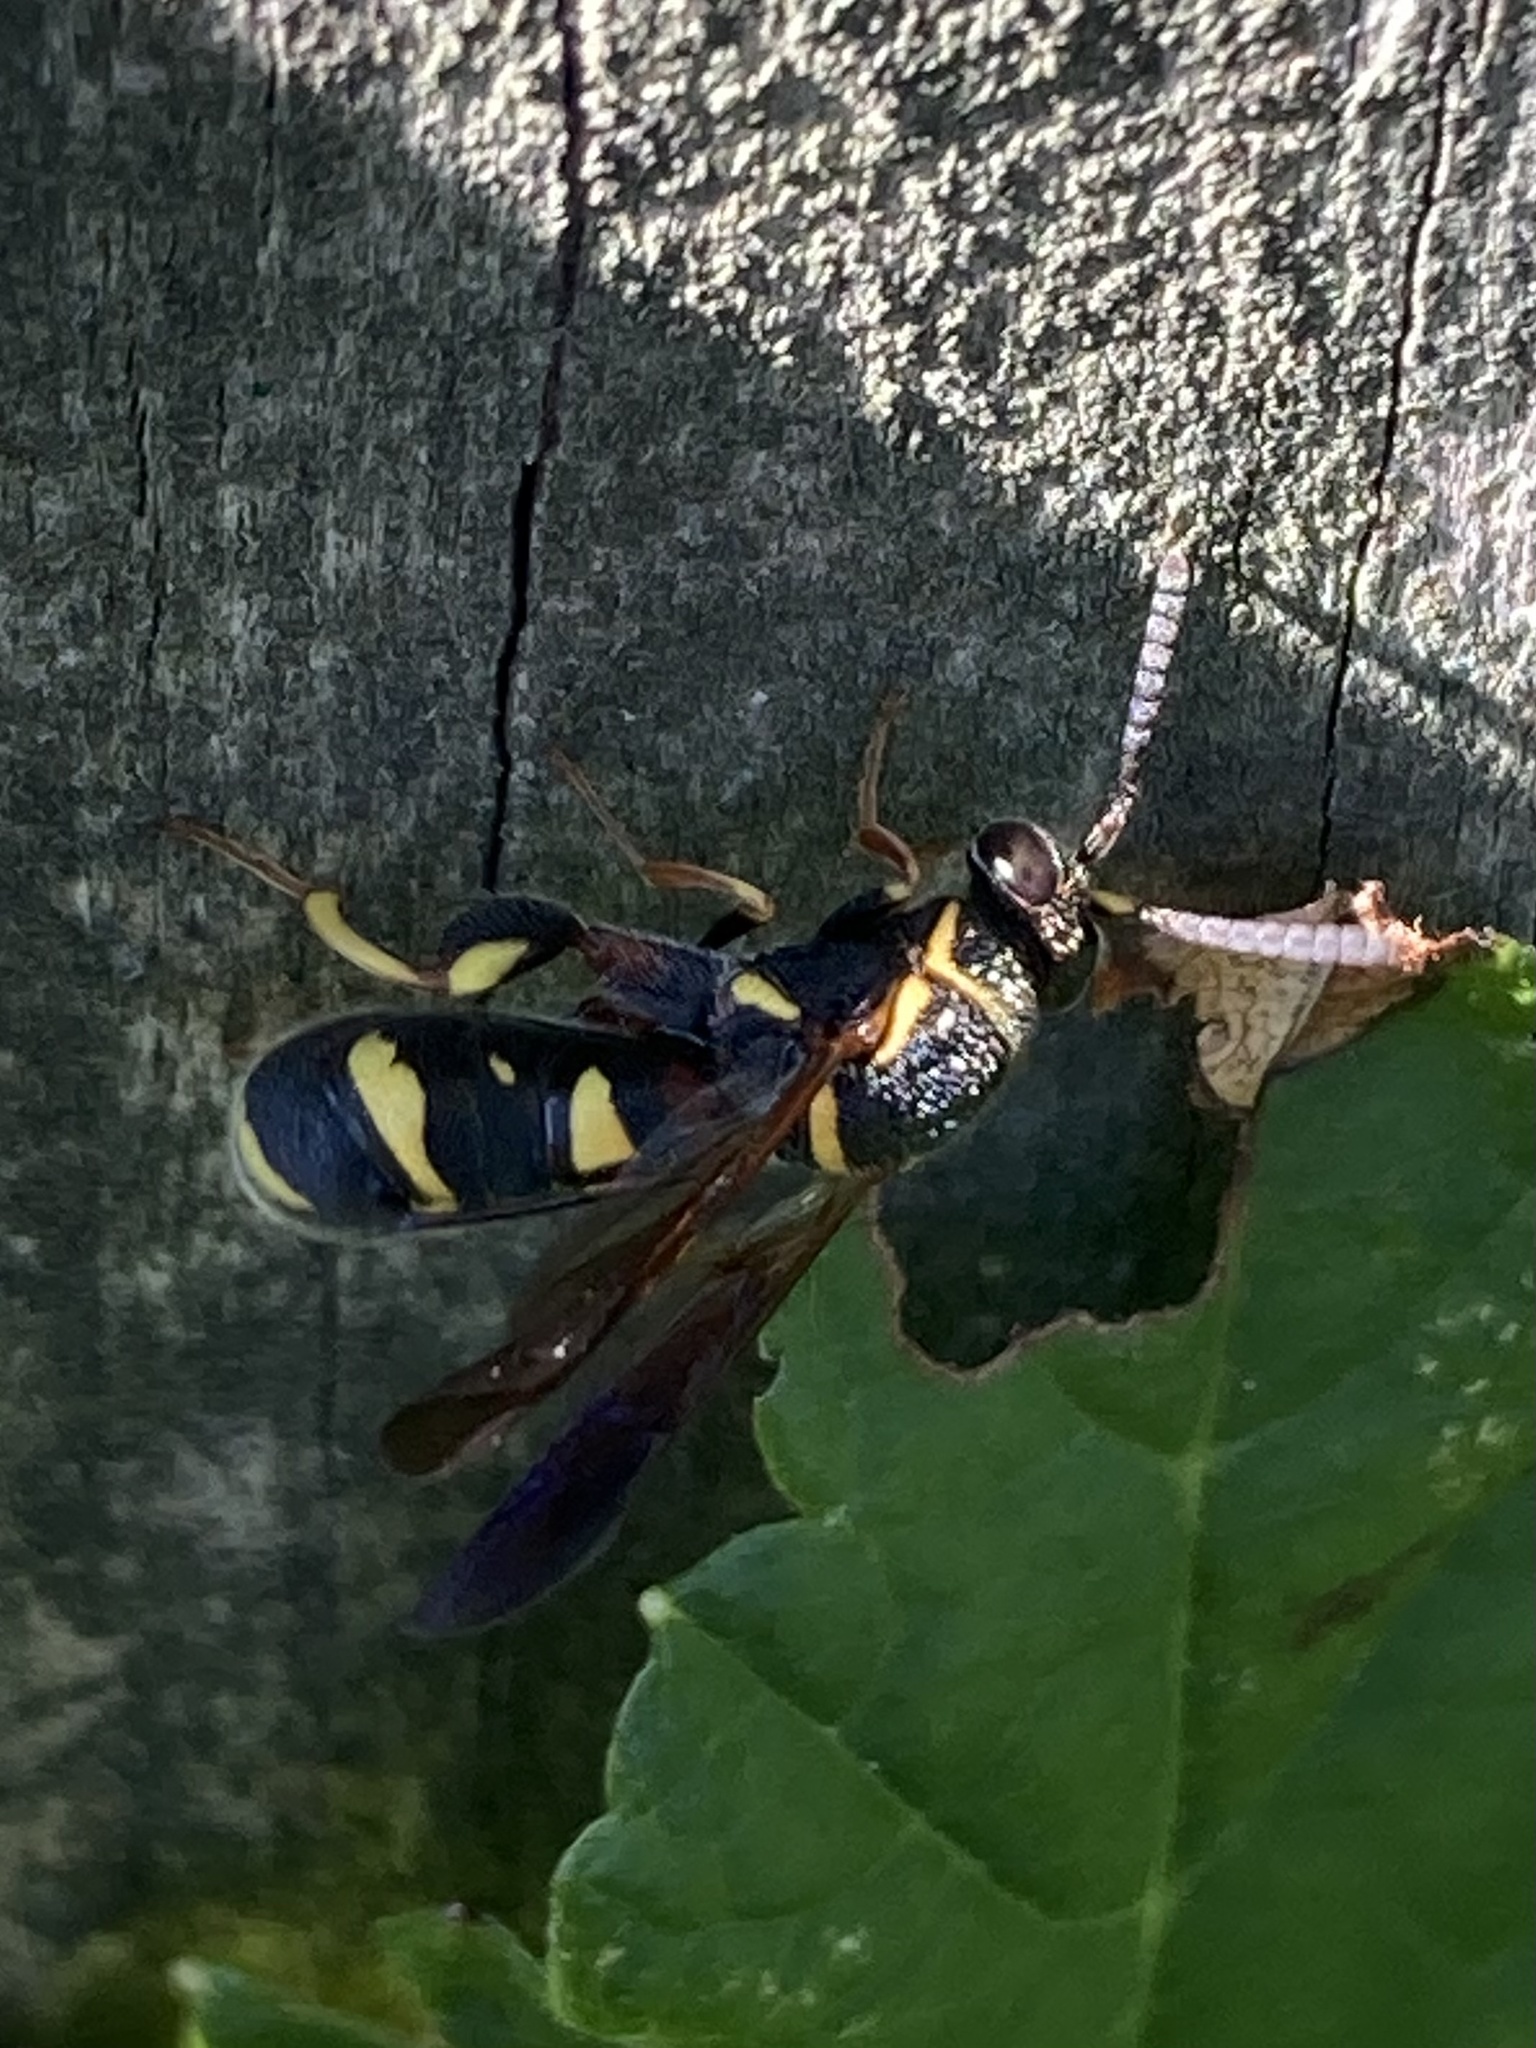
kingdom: Animalia
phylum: Arthropoda
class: Insecta
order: Hymenoptera
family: Leucospidae
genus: Leucospis
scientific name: Leucospis affinis
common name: Wasp
